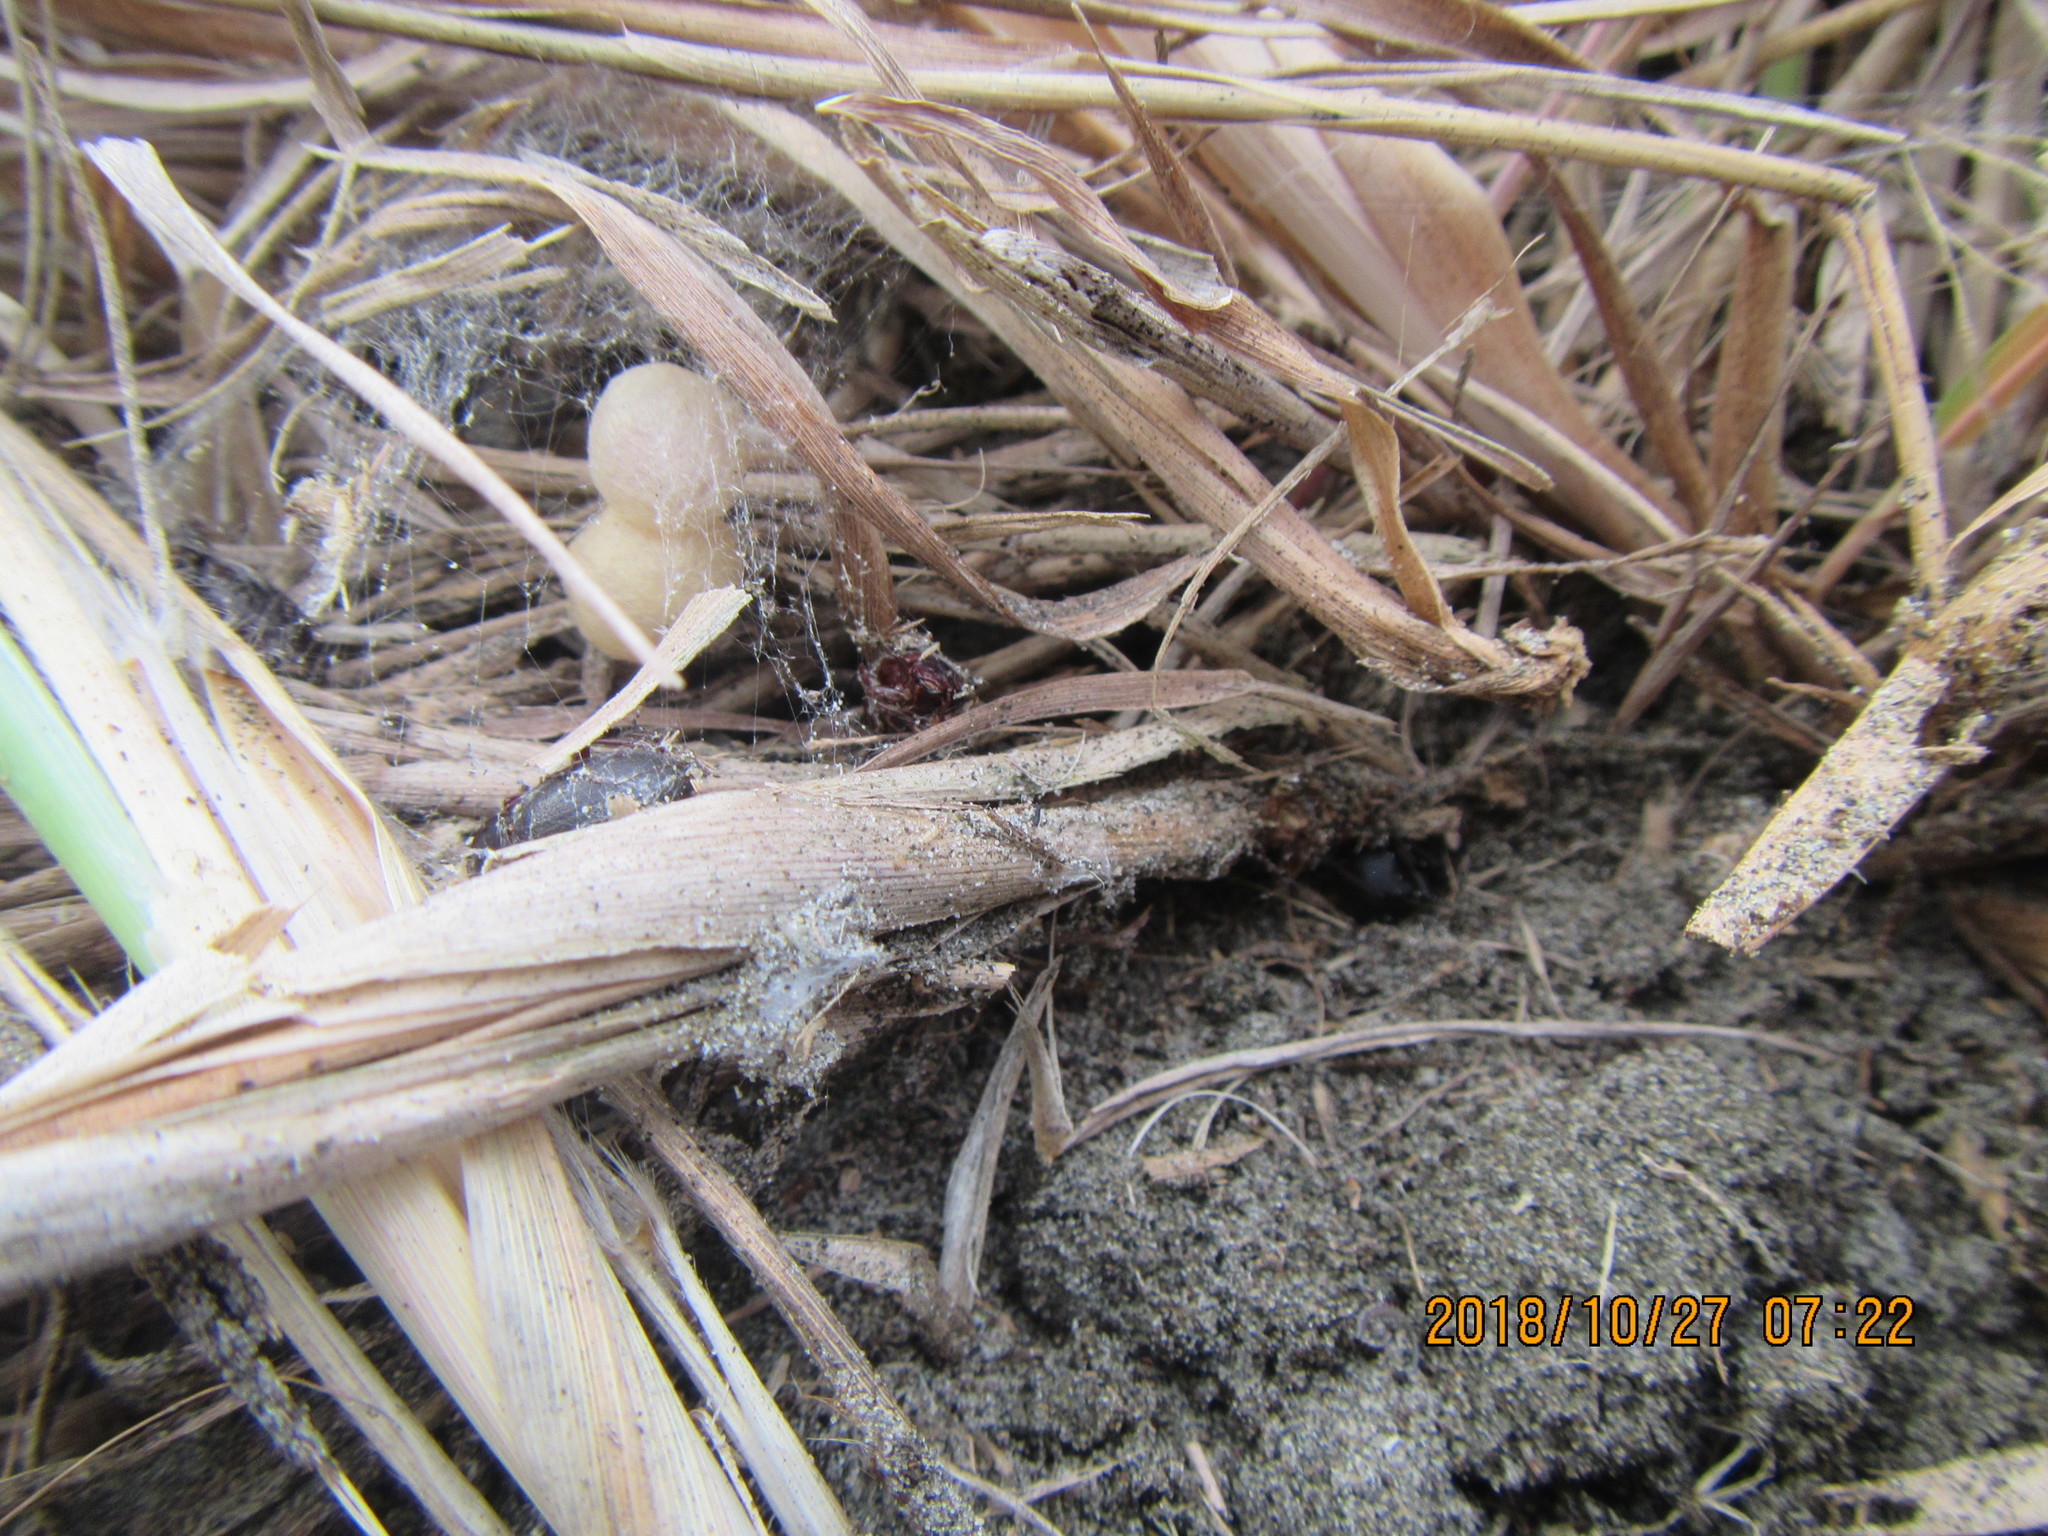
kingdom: Animalia
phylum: Arthropoda
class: Arachnida
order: Araneae
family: Theridiidae
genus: Latrodectus
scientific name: Latrodectus katipo
